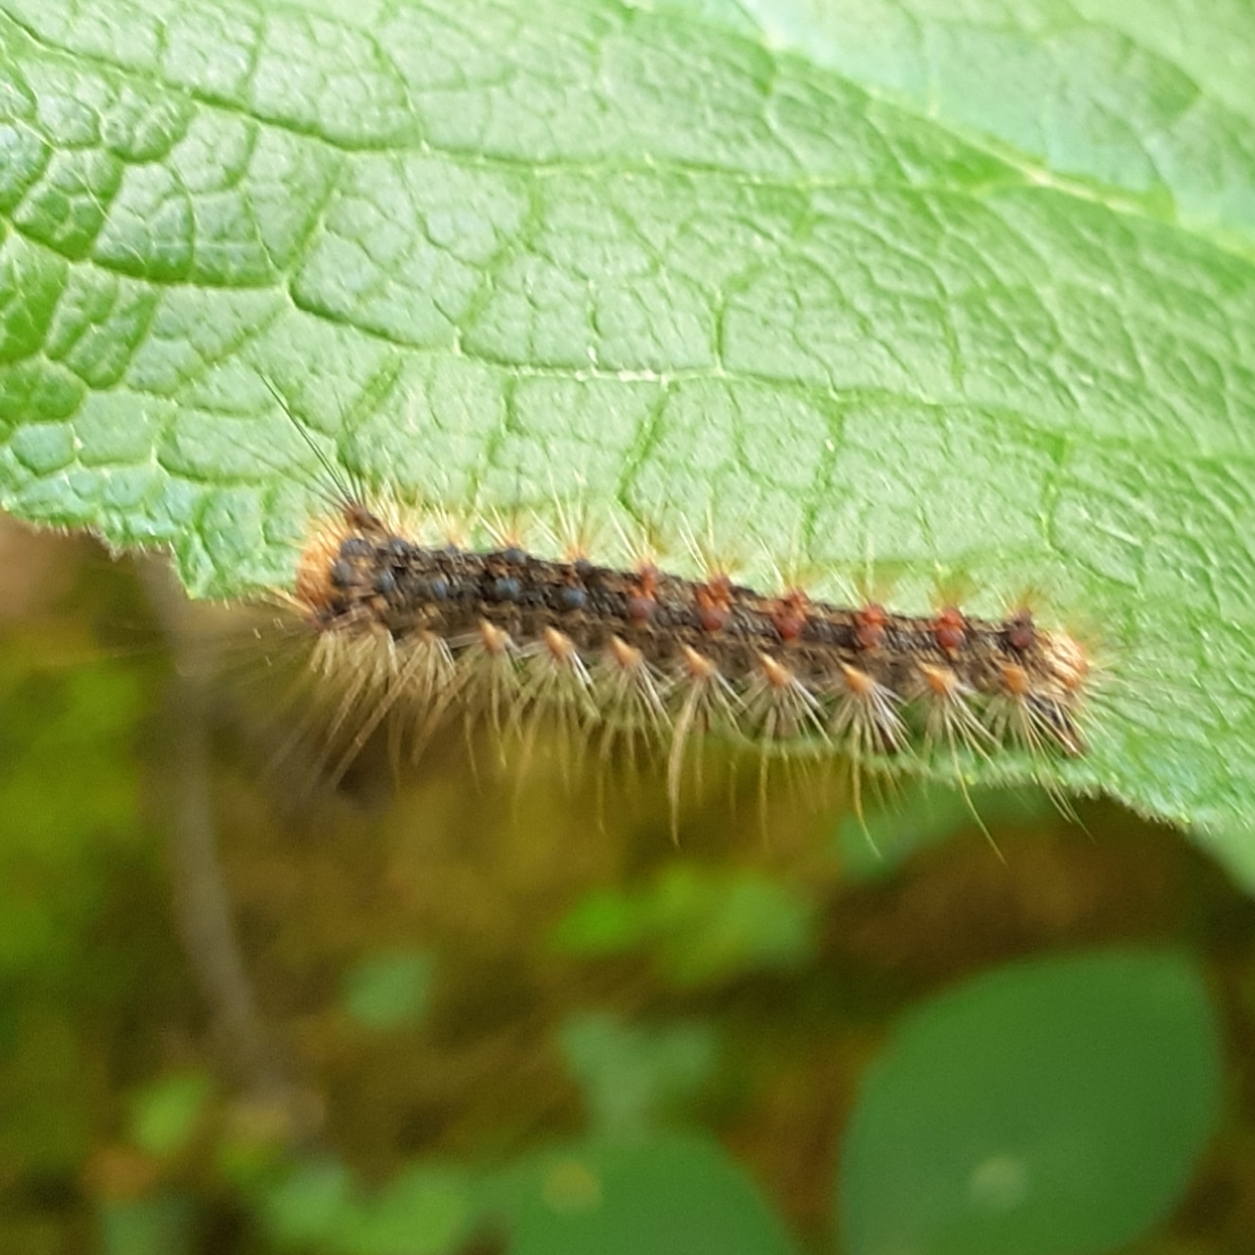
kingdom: Animalia
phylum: Arthropoda
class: Insecta
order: Lepidoptera
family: Erebidae
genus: Lymantria
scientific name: Lymantria dispar
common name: Gypsy moth
